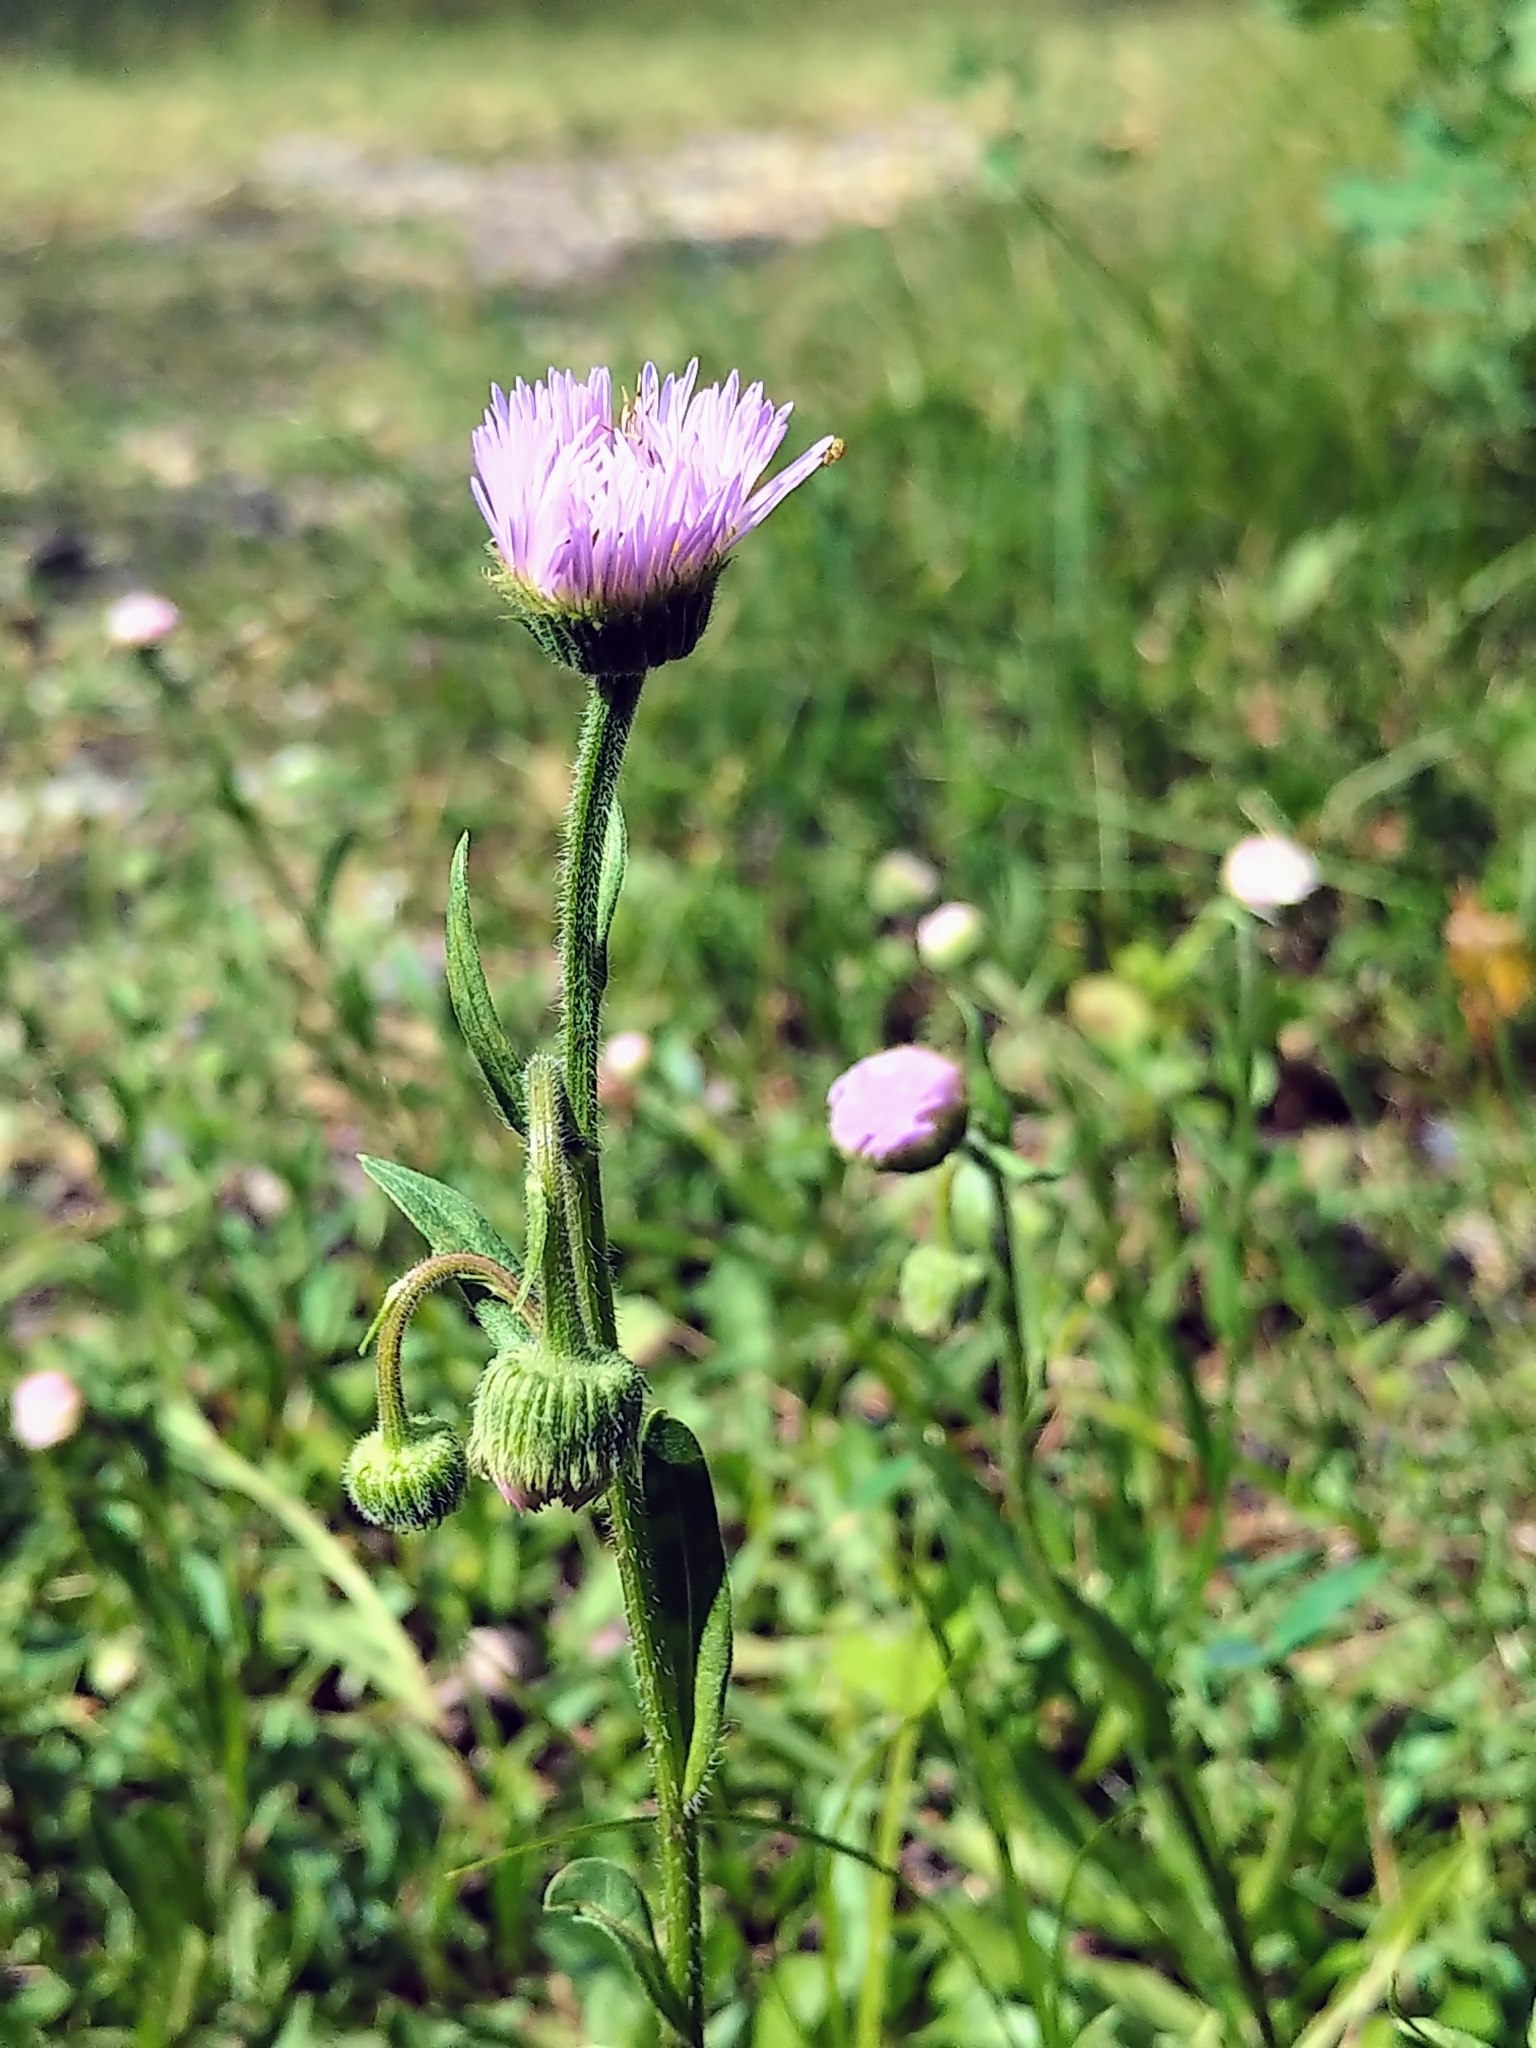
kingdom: Plantae
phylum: Tracheophyta
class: Magnoliopsida
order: Asterales
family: Asteraceae
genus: Erigeron
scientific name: Erigeron glabellus
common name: Smooth fleabane
